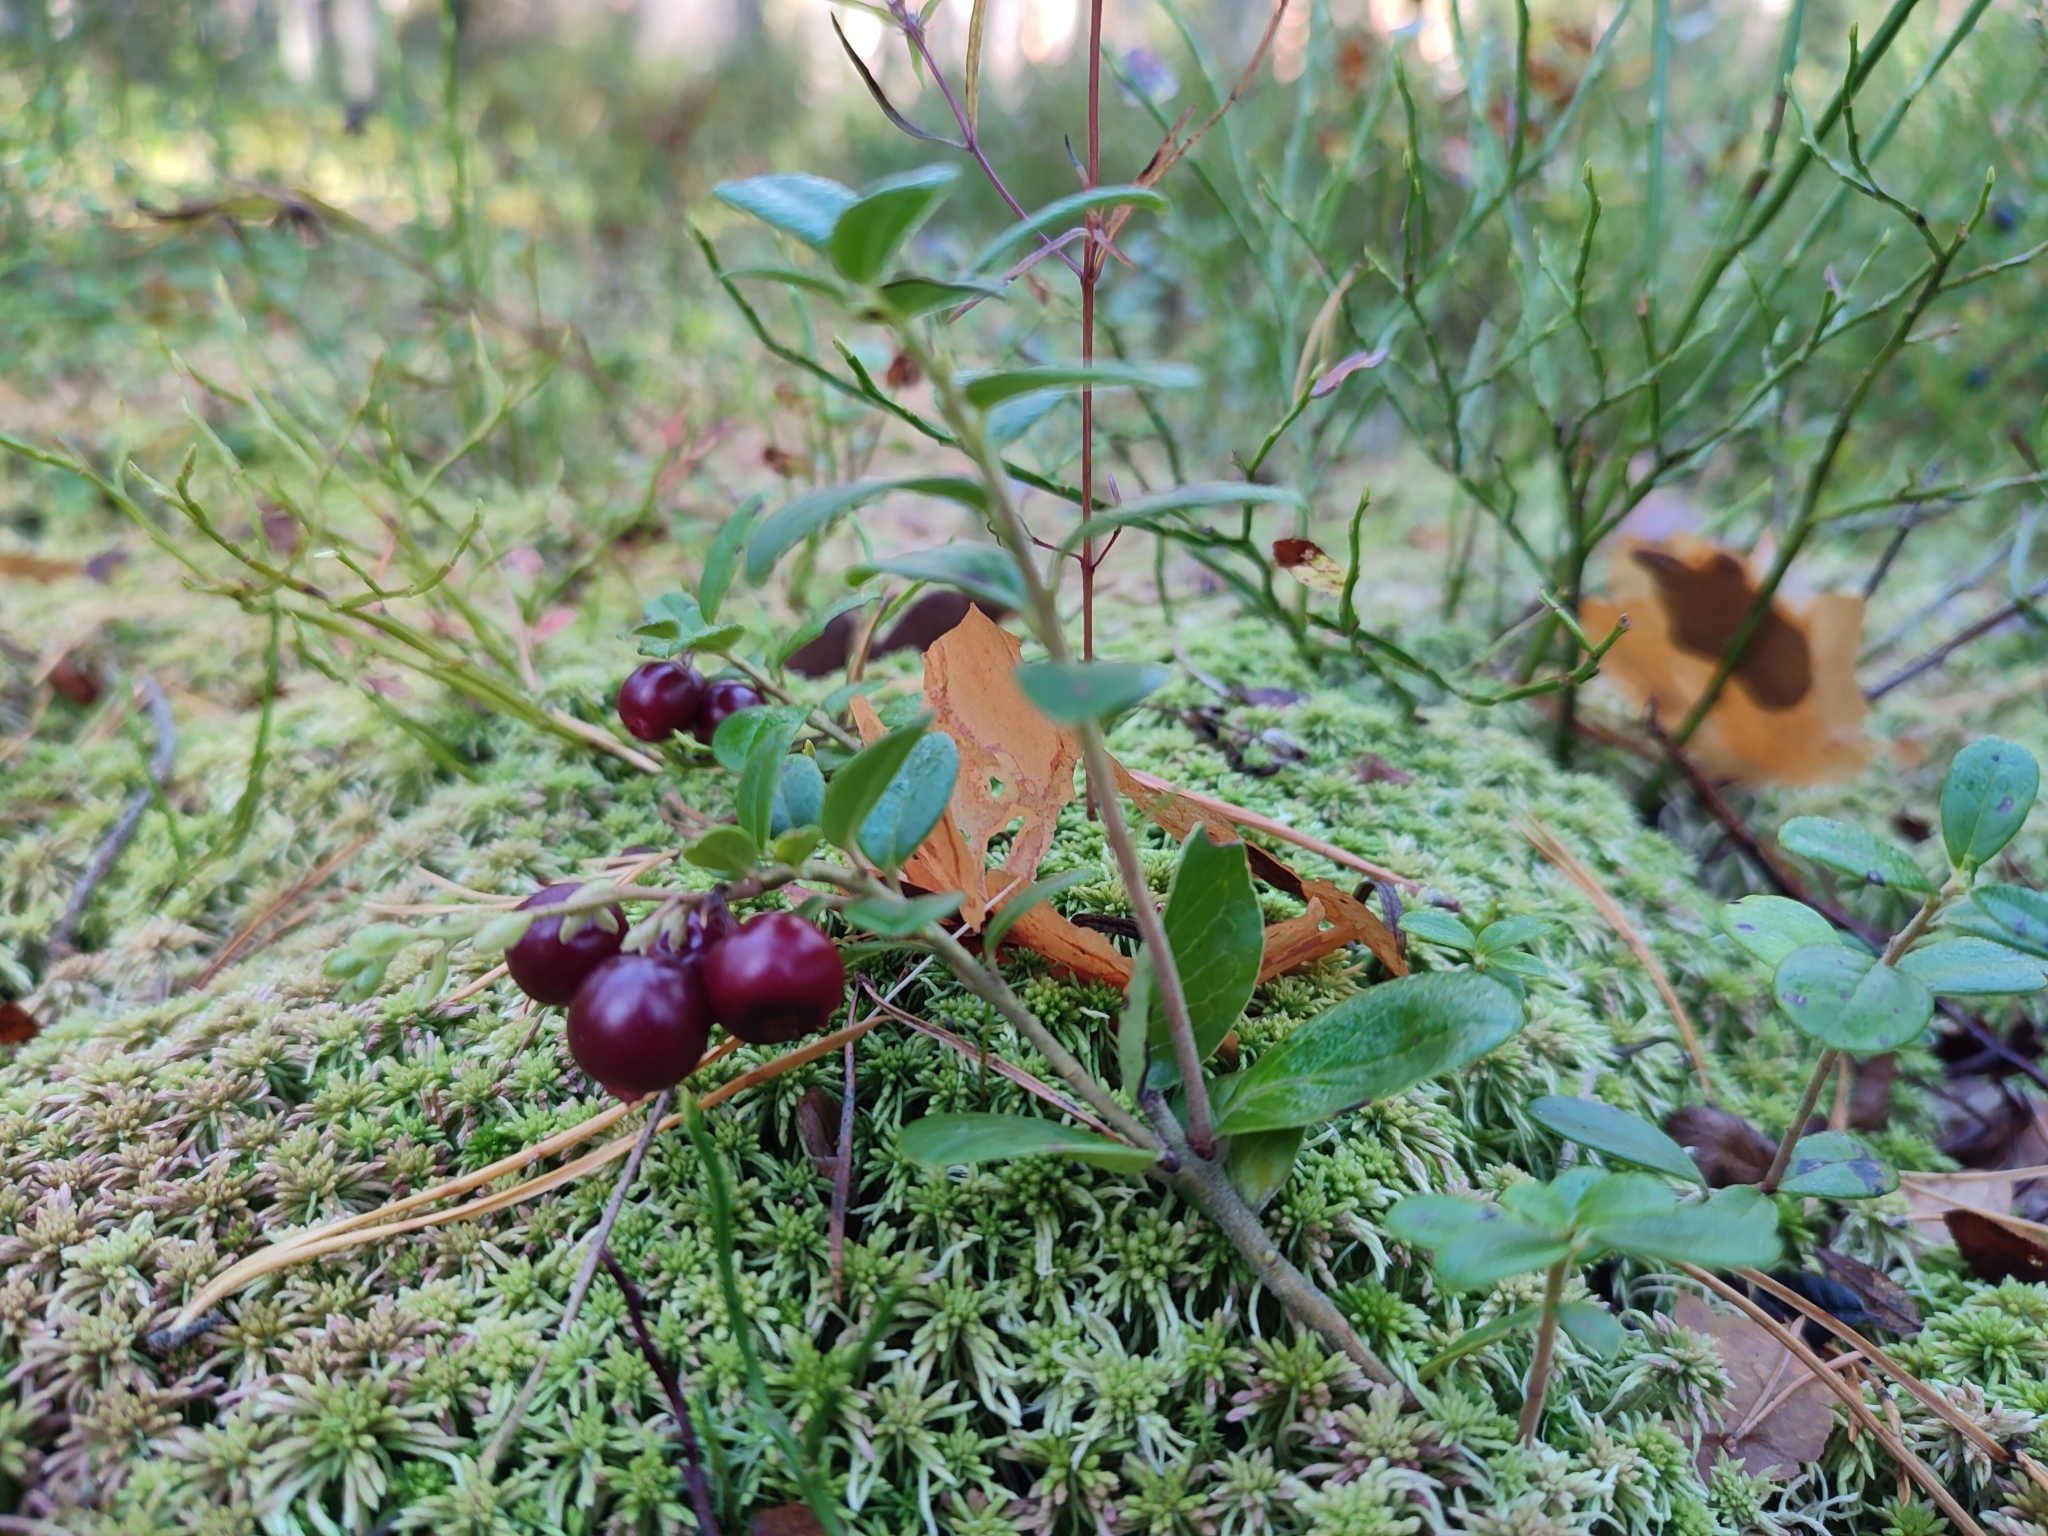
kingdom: Plantae
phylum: Tracheophyta
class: Magnoliopsida
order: Ericales
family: Ericaceae
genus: Vaccinium
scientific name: Vaccinium vitis-idaea
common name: Cowberry
